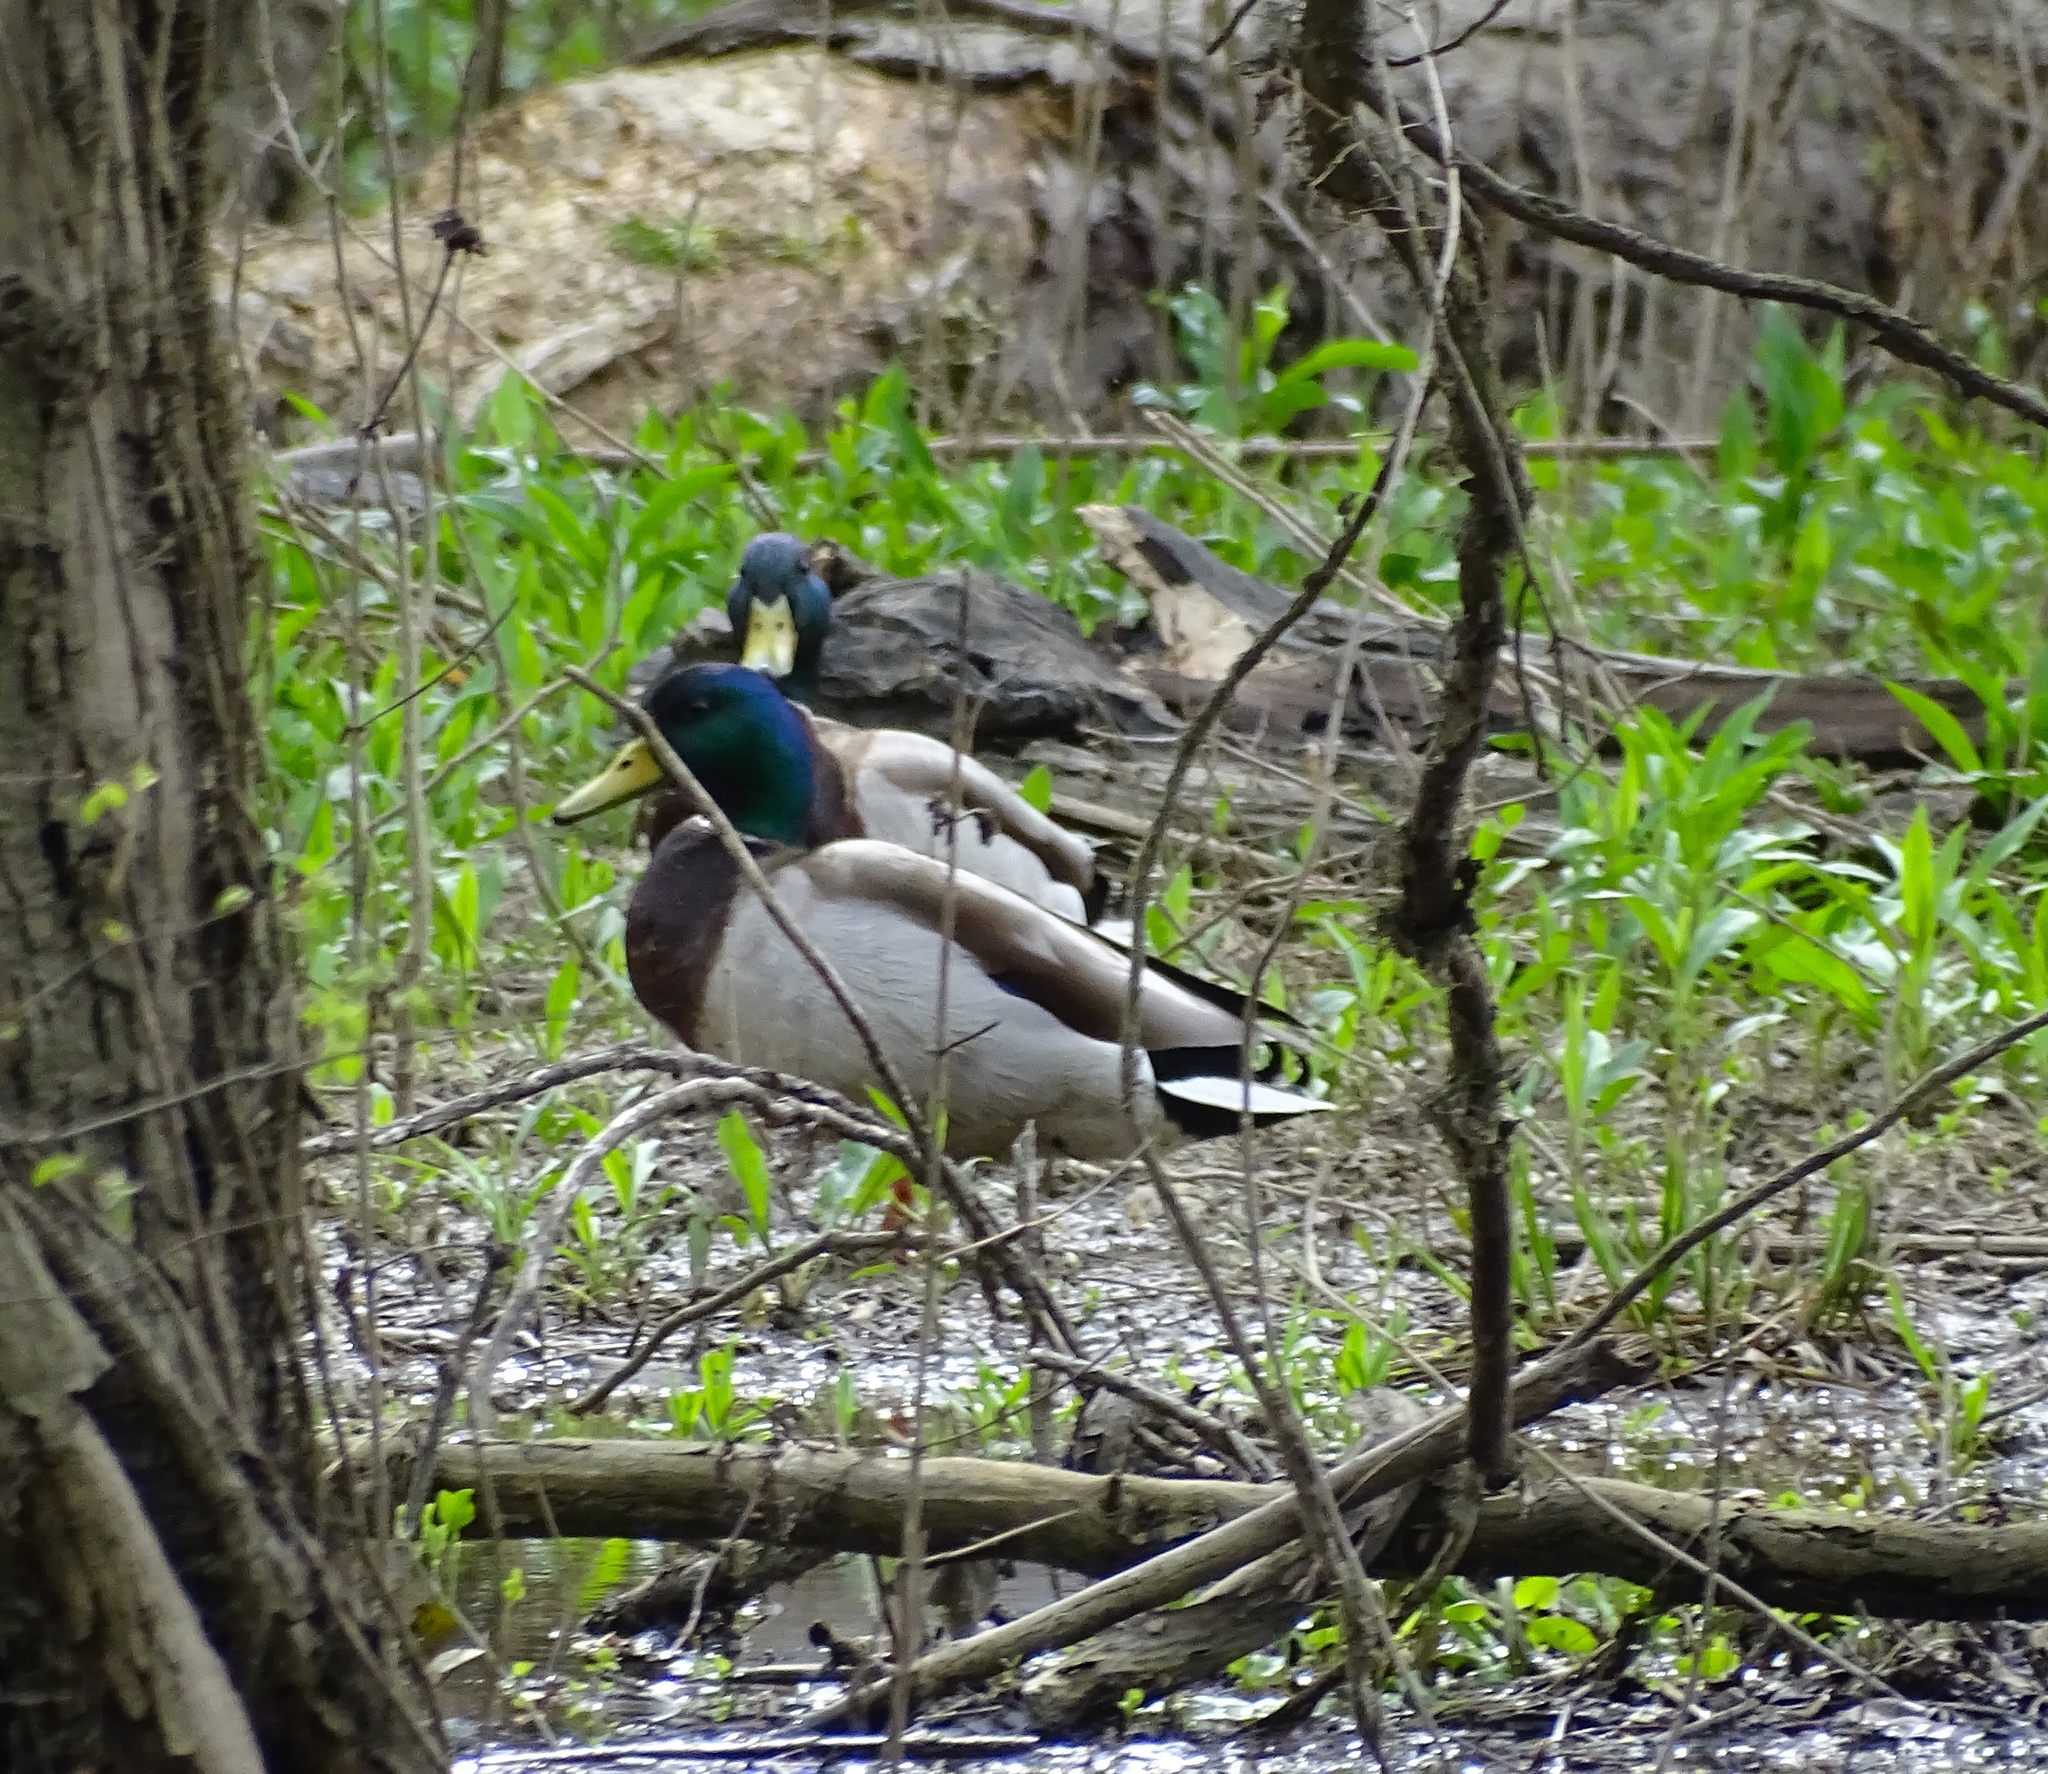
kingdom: Animalia
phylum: Chordata
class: Aves
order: Anseriformes
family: Anatidae
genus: Anas
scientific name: Anas platyrhynchos
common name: Mallard
